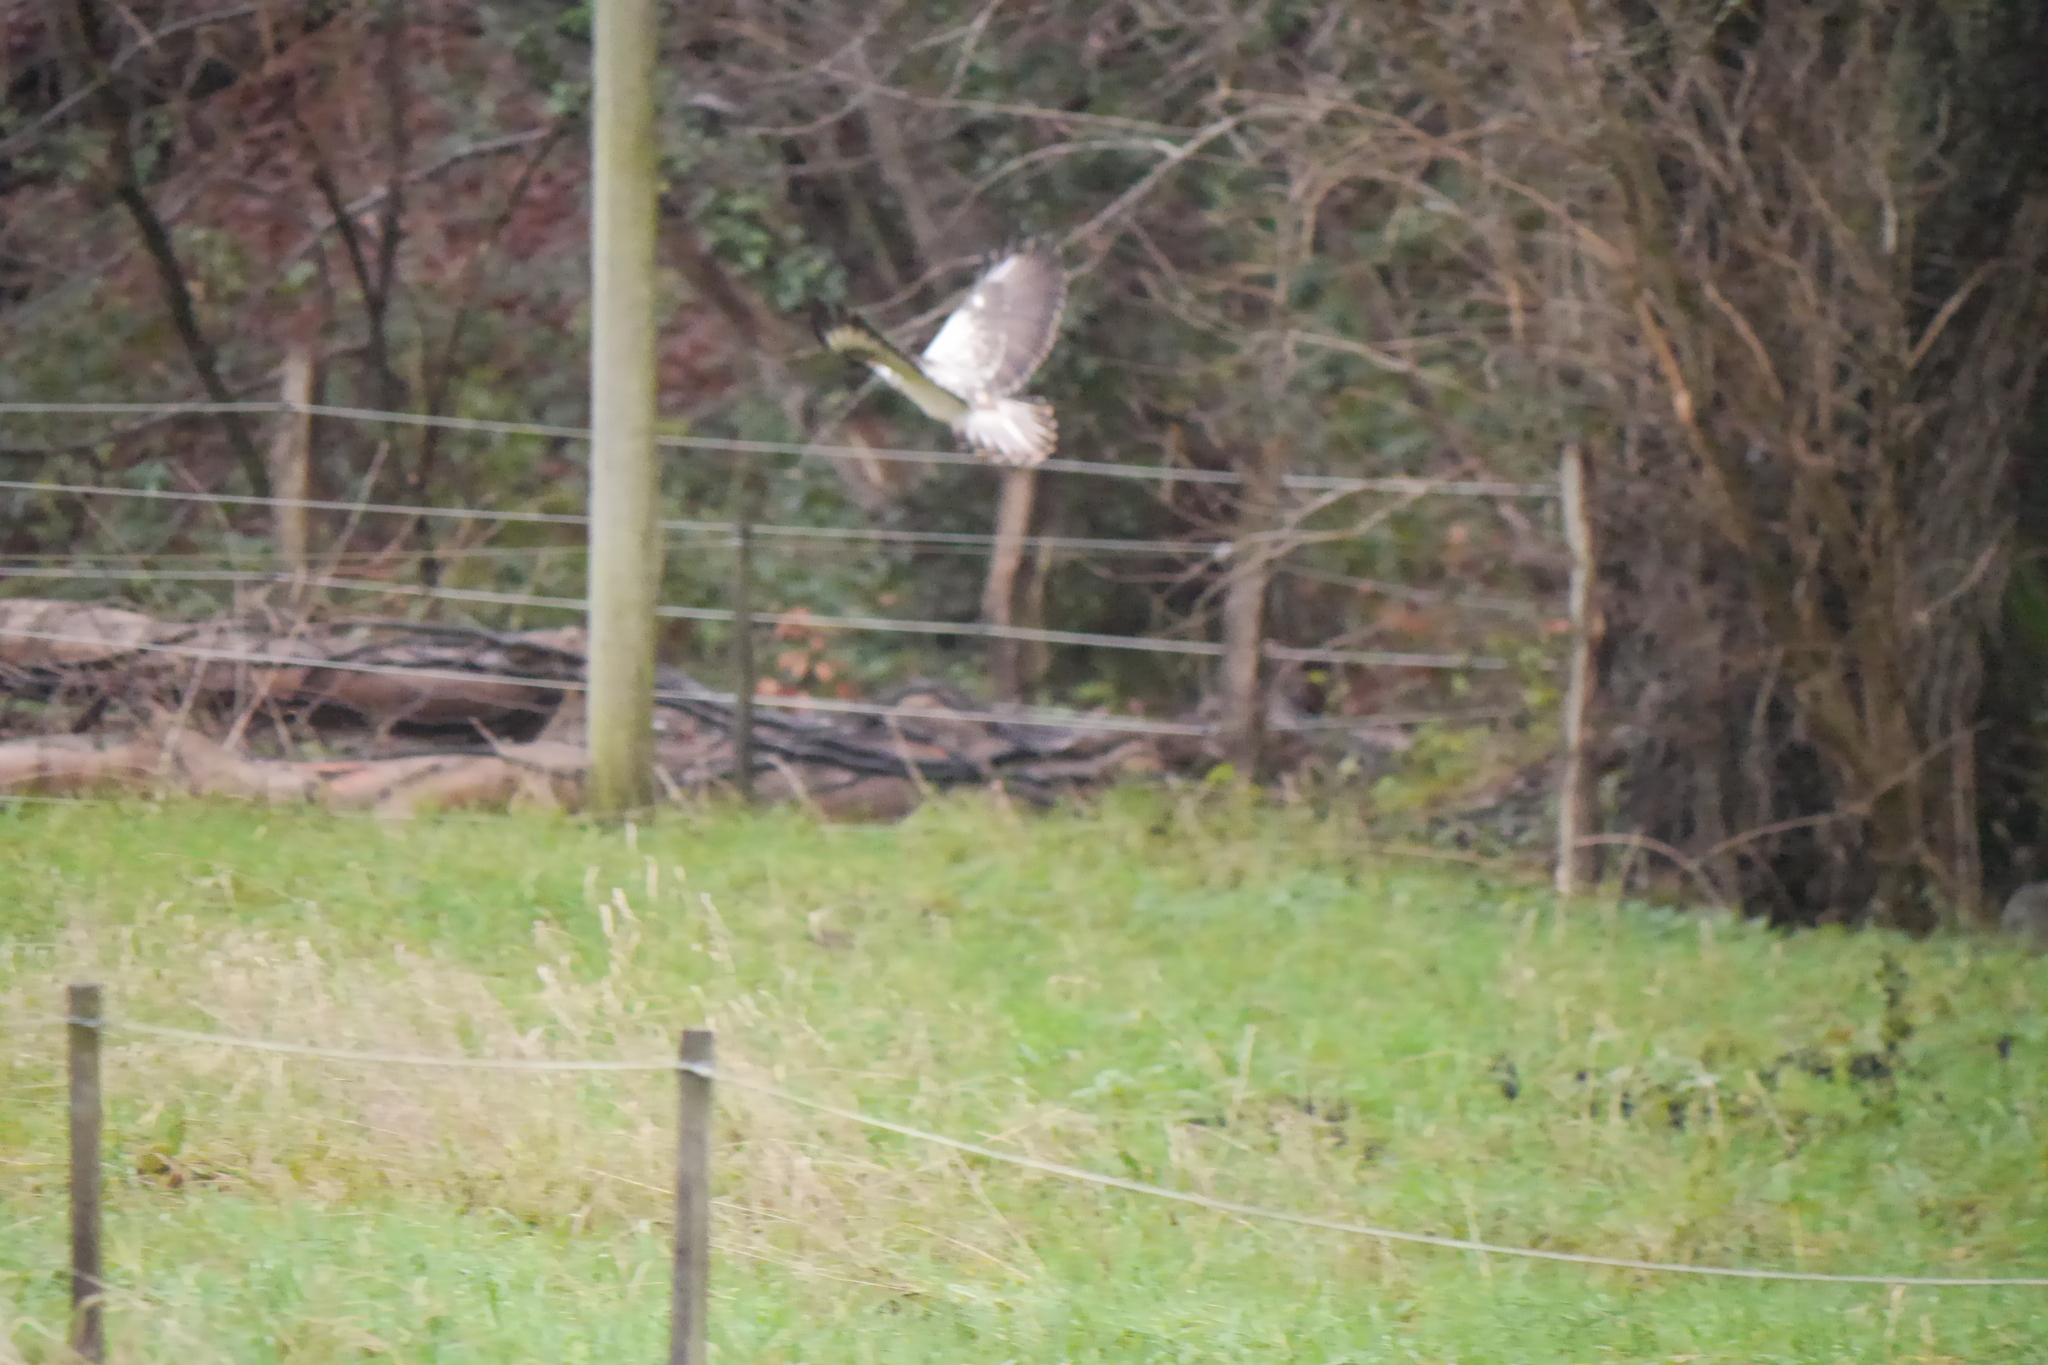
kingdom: Animalia
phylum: Chordata
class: Aves
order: Accipitriformes
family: Accipitridae
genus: Buteo
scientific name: Buteo buteo
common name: Common buzzard
